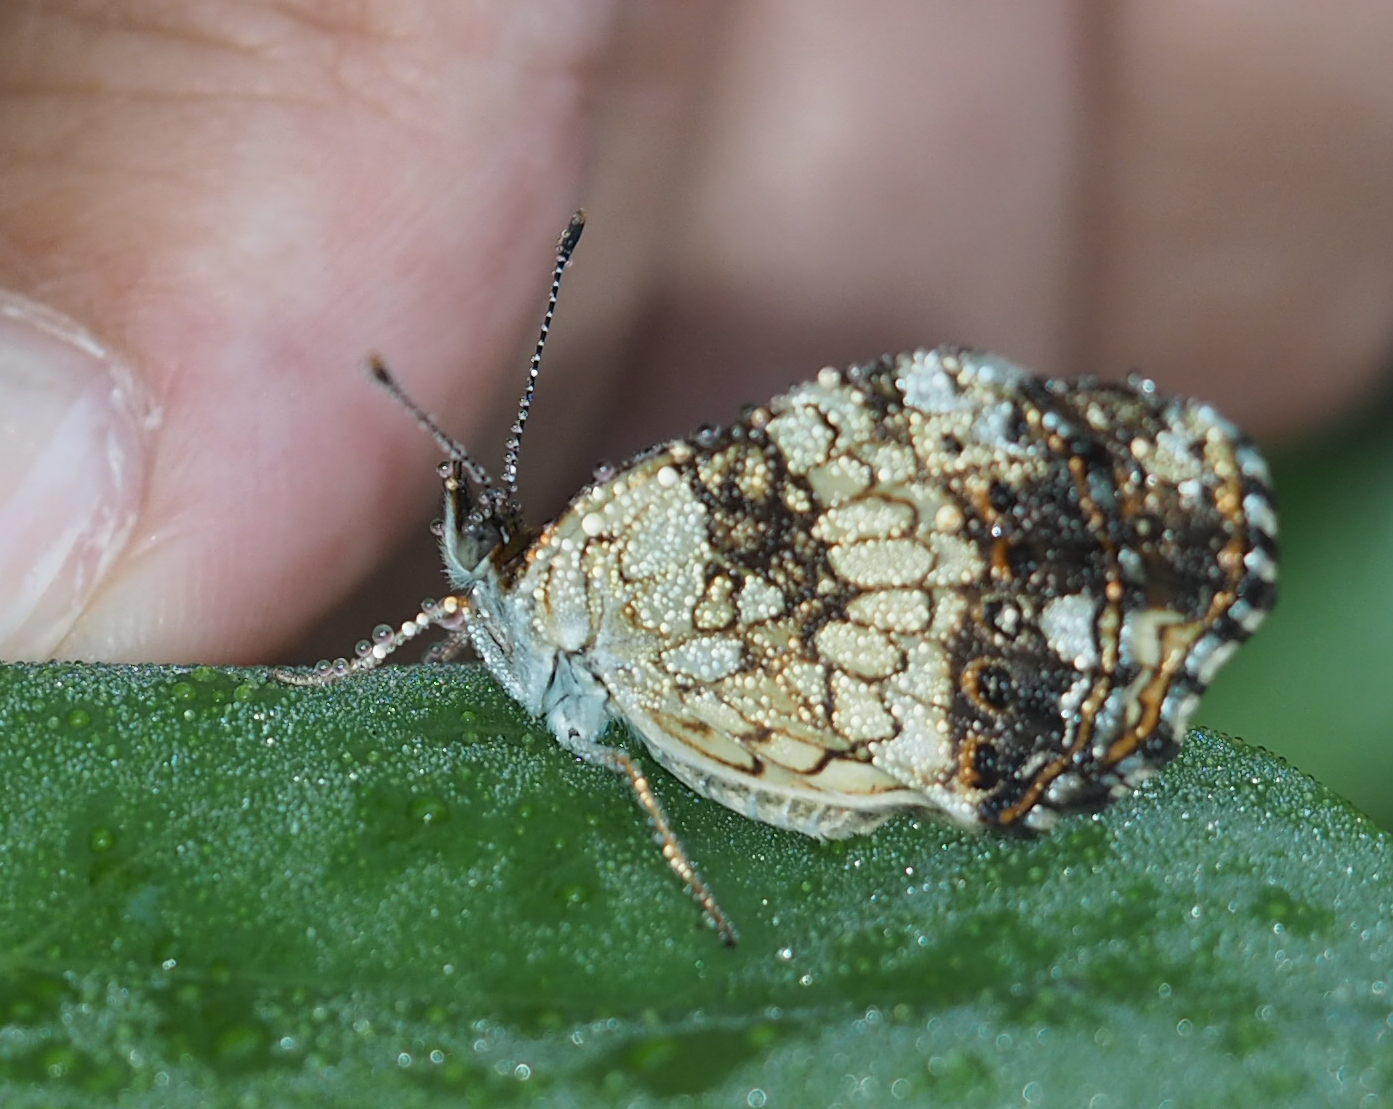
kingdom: Animalia
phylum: Arthropoda
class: Insecta
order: Lepidoptera
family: Nymphalidae
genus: Chlosyne
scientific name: Chlosyne nycteis
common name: Silvery checkerspot
